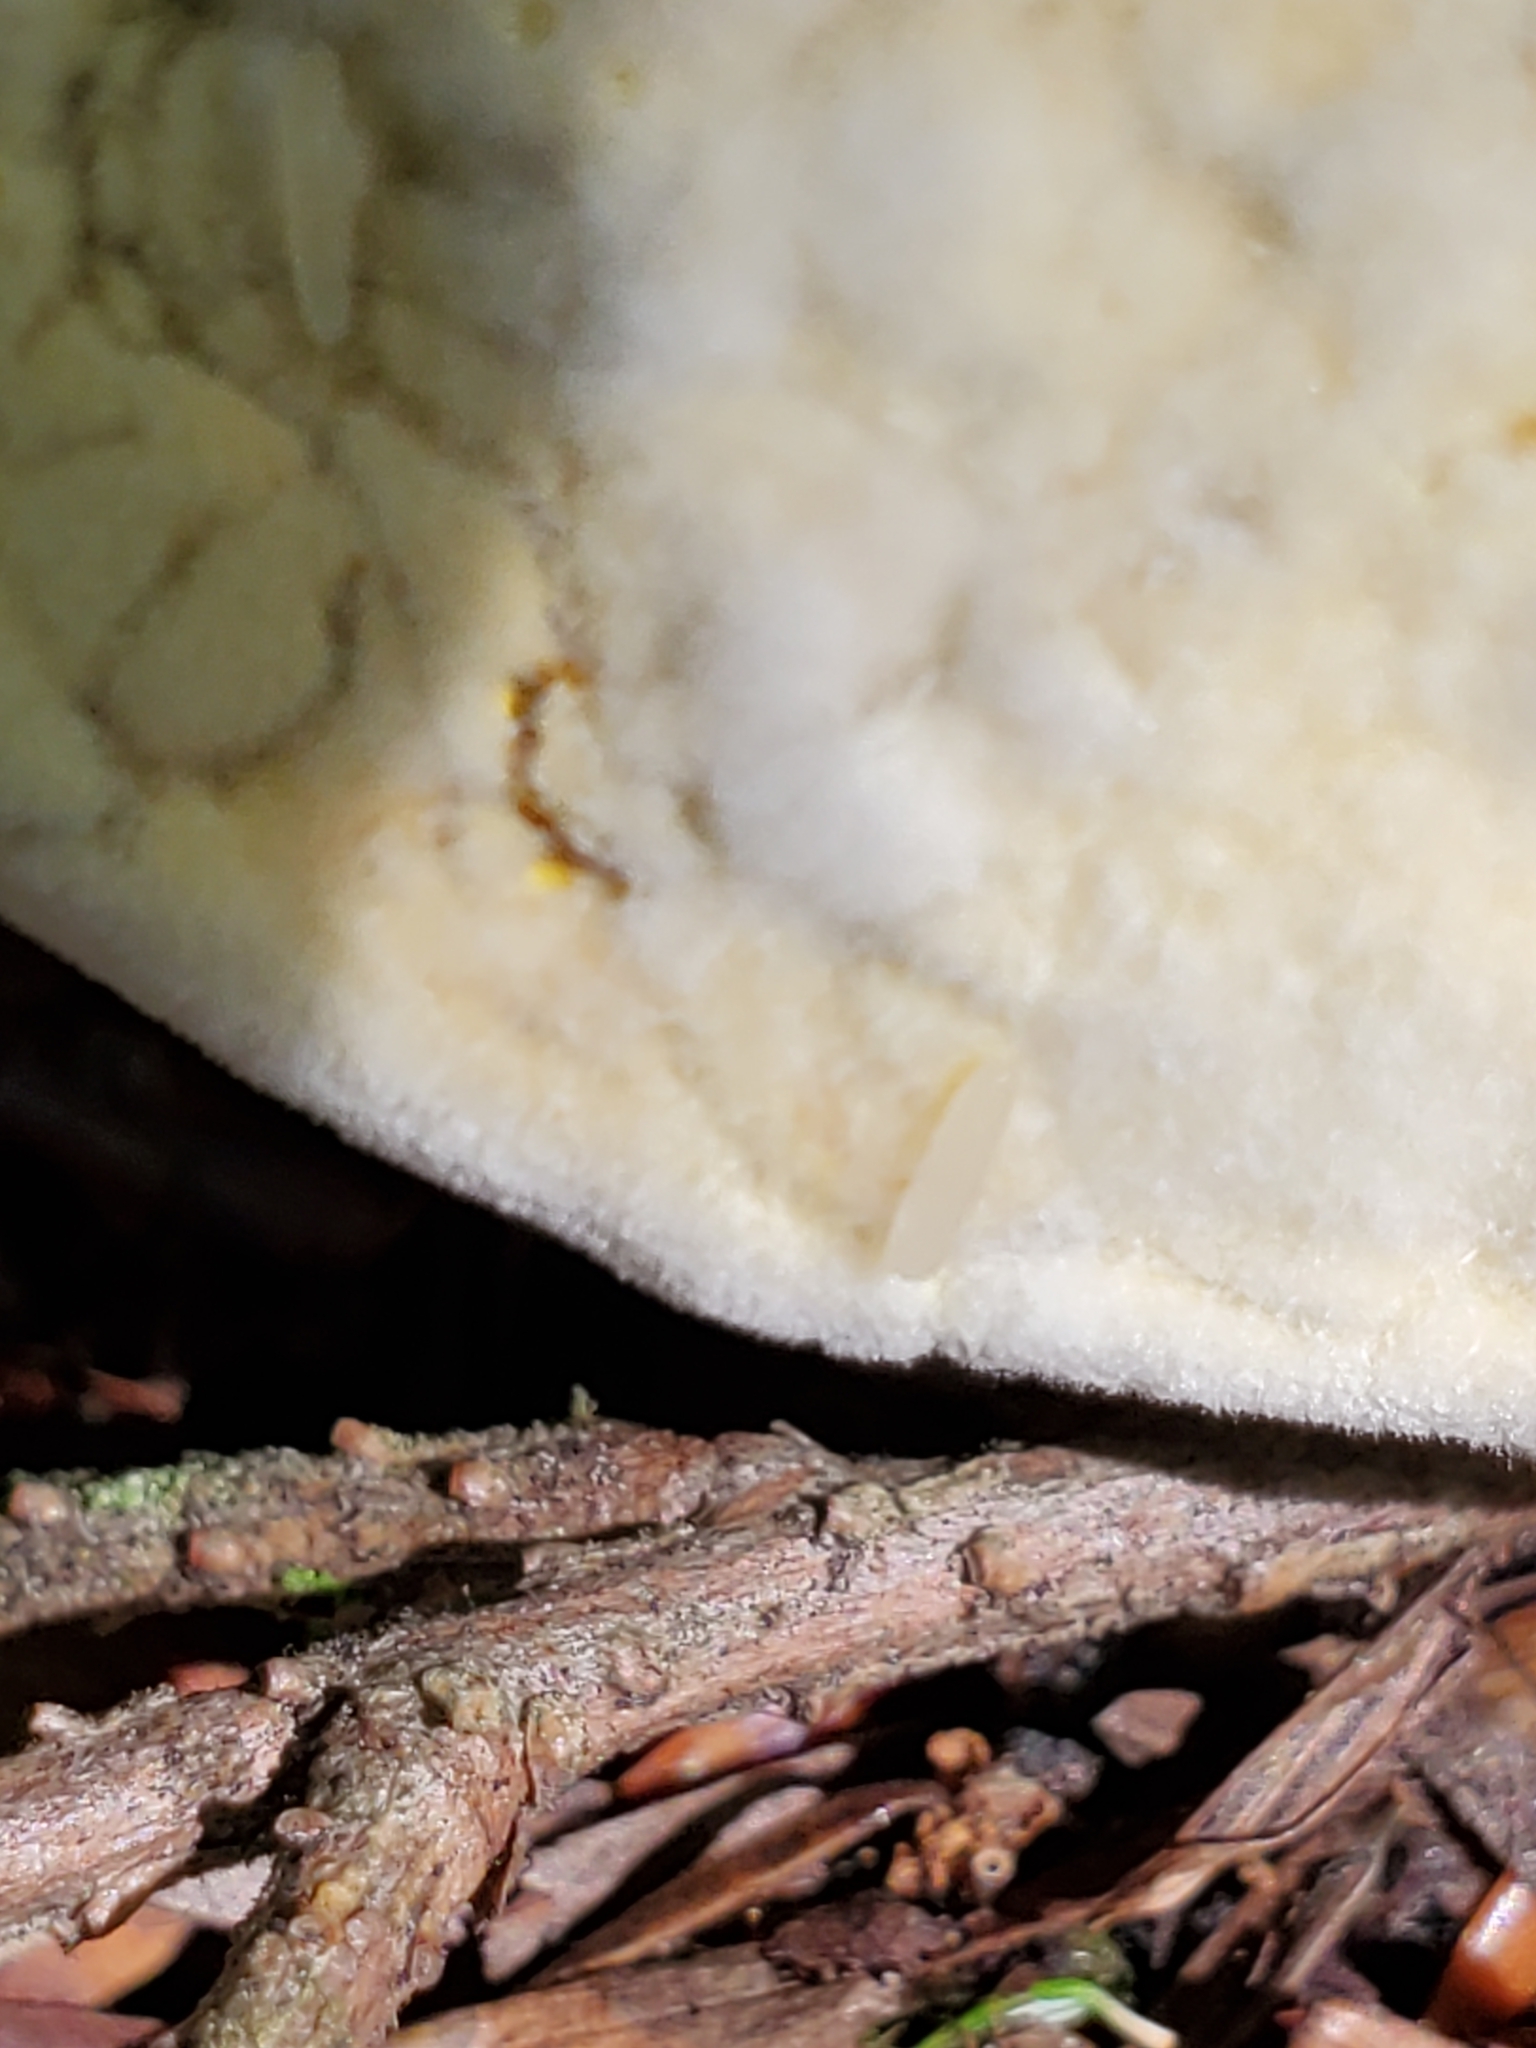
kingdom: Fungi
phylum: Ascomycota
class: Sordariomycetes
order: Hypocreales
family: Hypocreaceae
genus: Hypomyces
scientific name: Hypomyces chrysospermus
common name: Bolete mould
